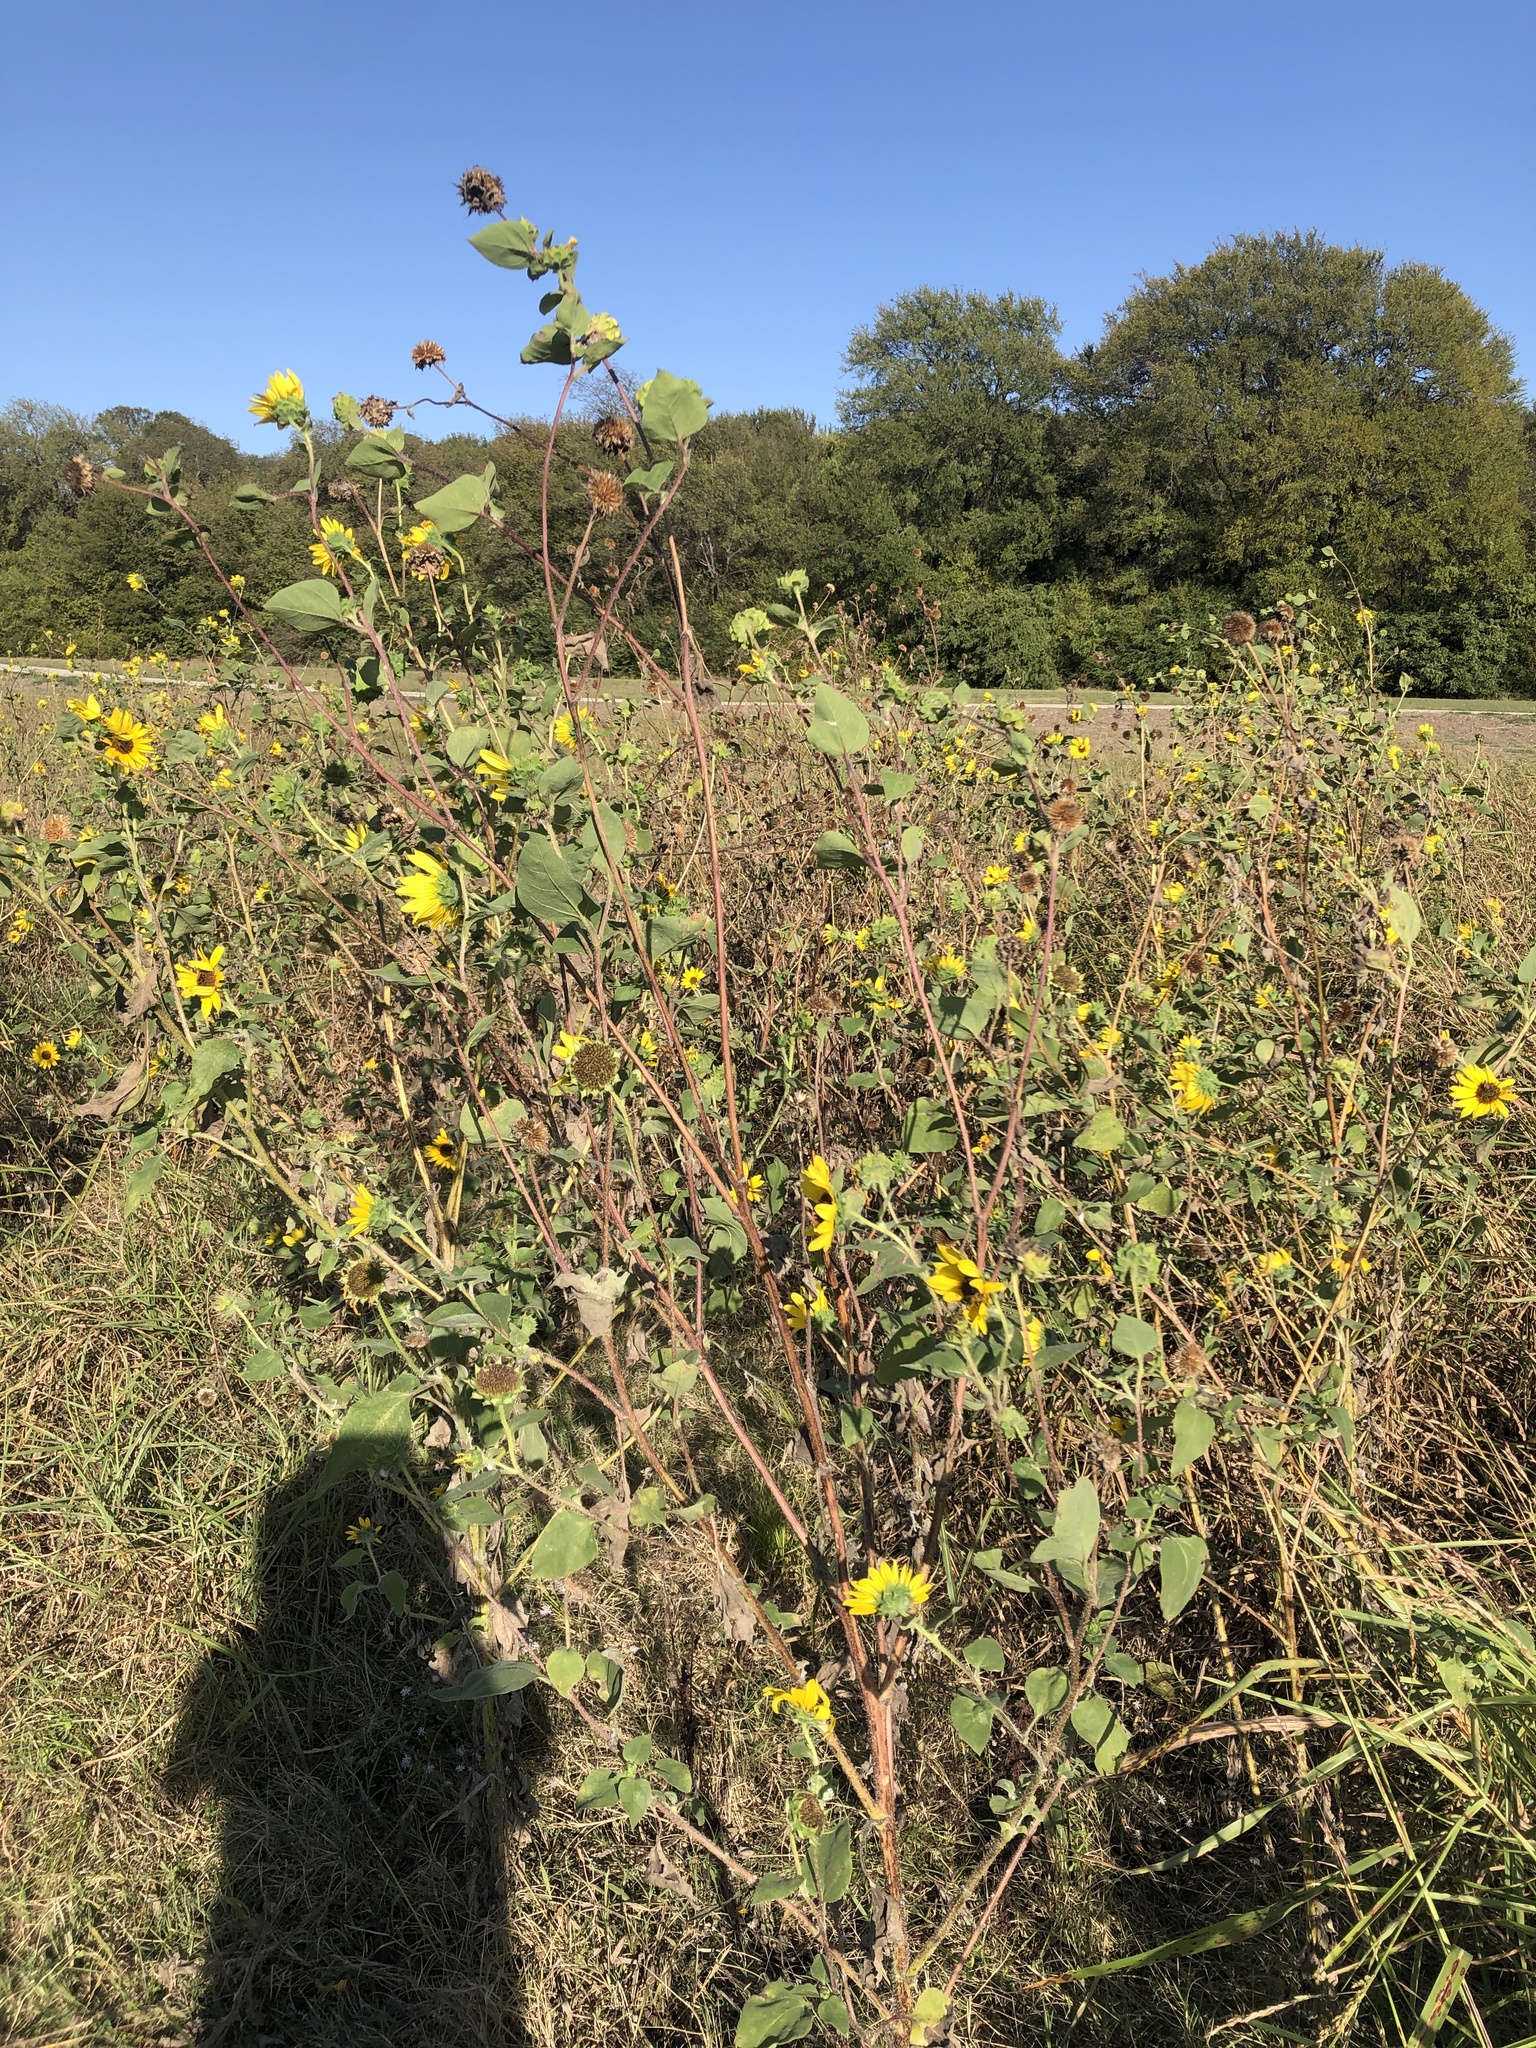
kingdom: Plantae
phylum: Tracheophyta
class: Magnoliopsida
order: Asterales
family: Asteraceae
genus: Helianthus
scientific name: Helianthus annuus
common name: Sunflower
